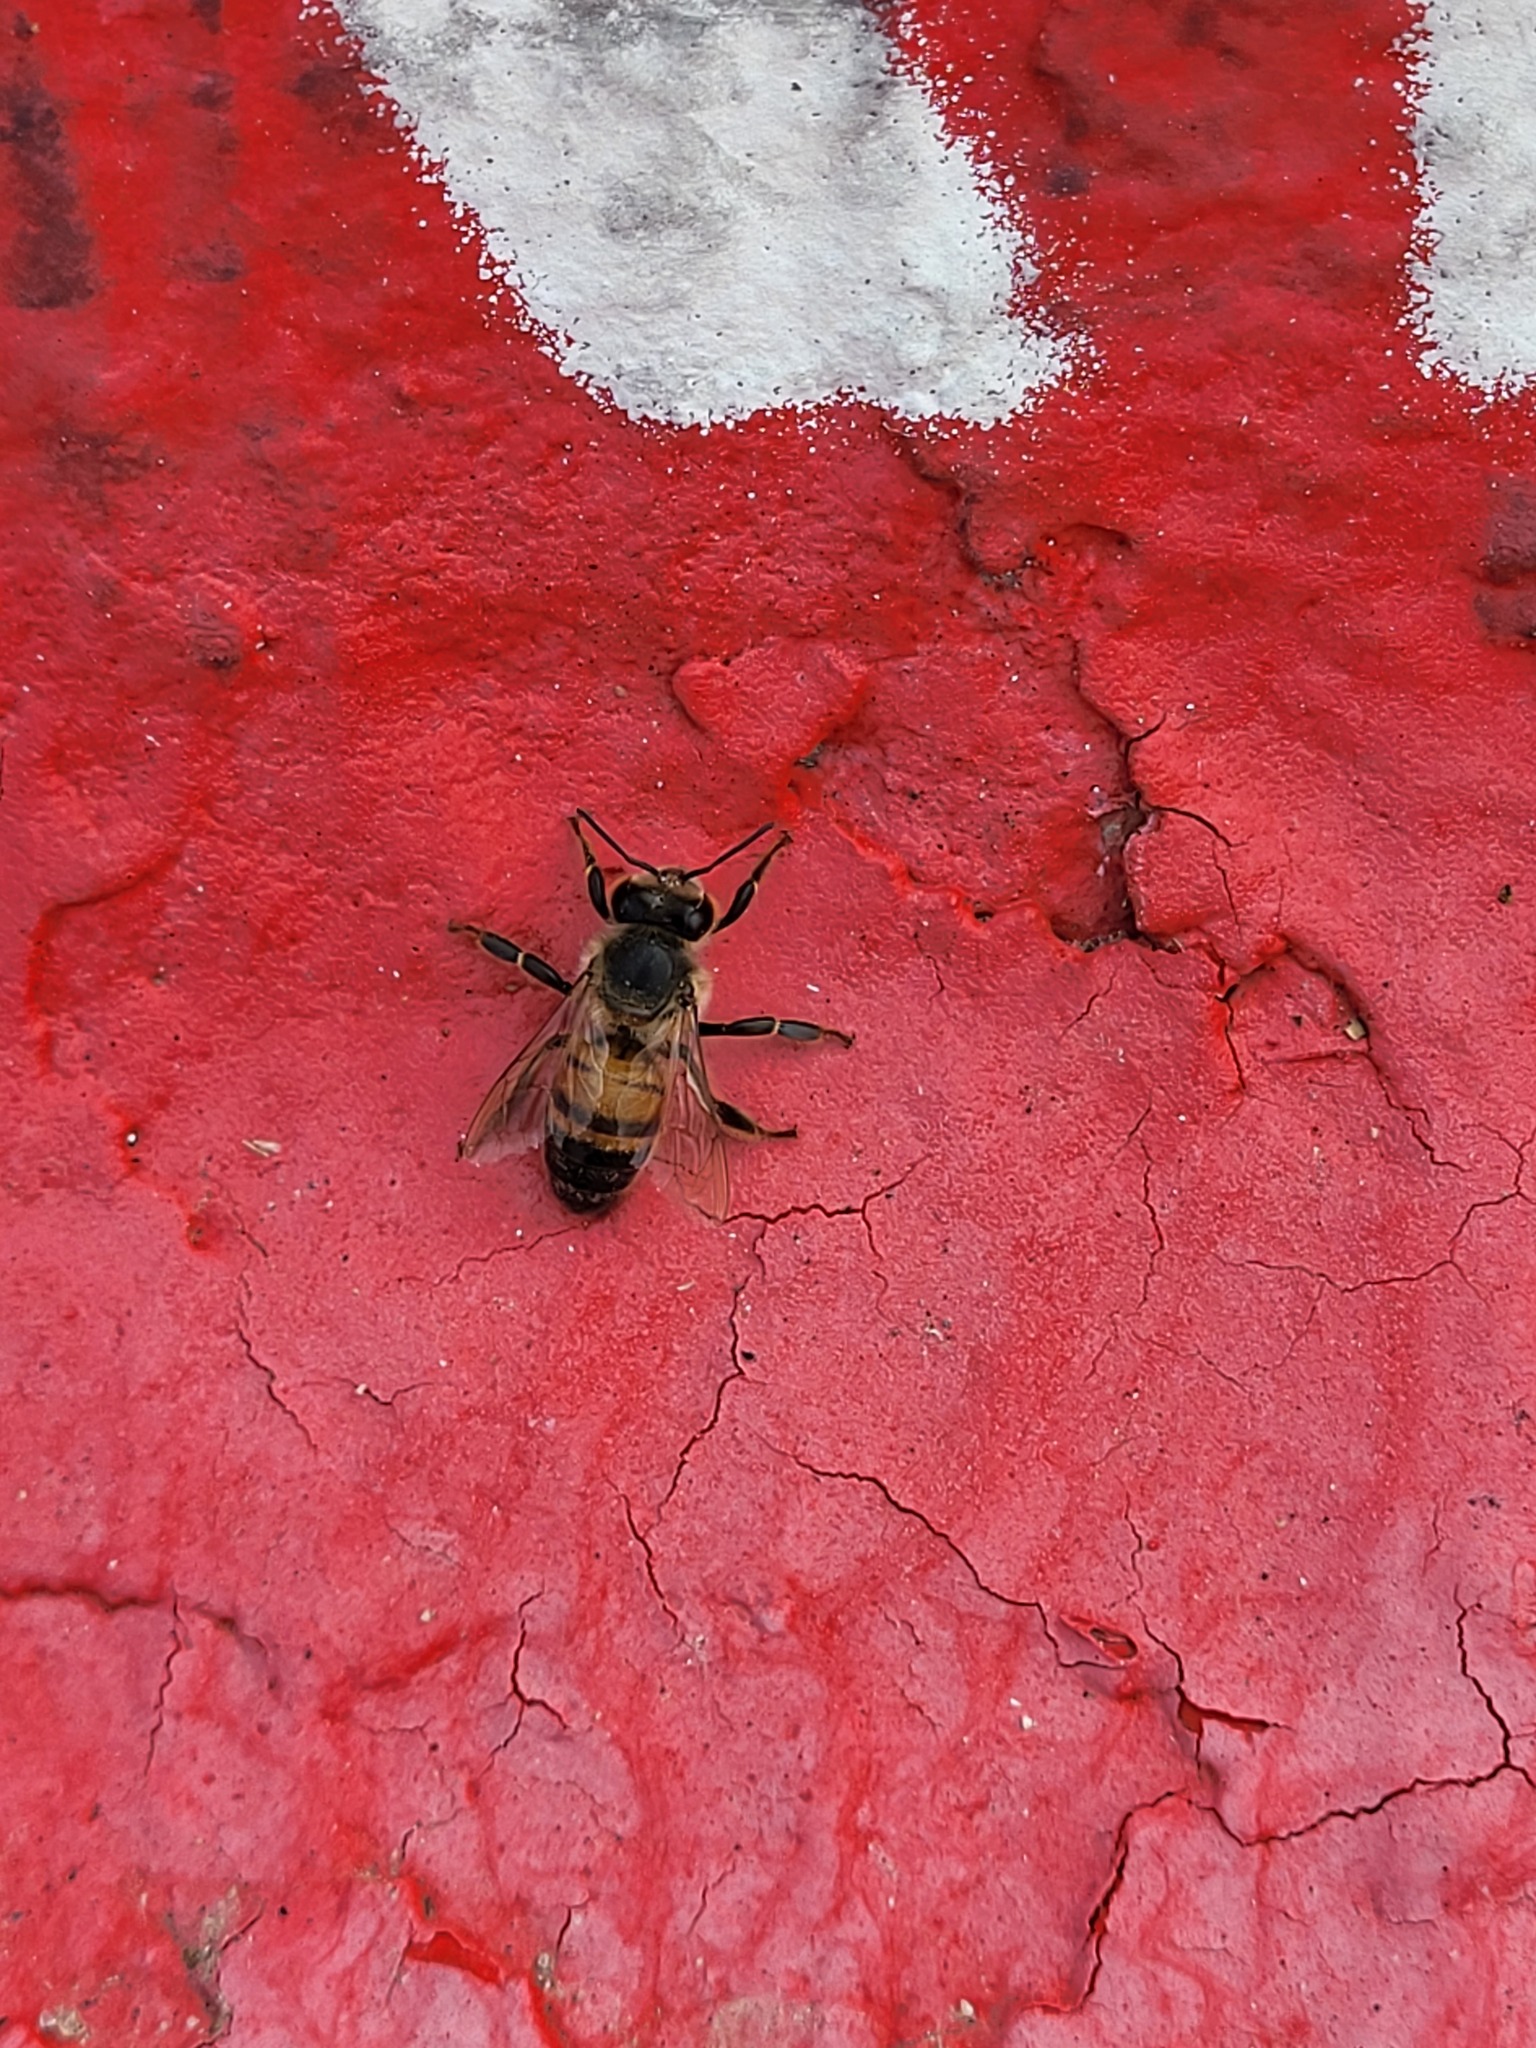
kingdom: Animalia
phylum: Arthropoda
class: Insecta
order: Hymenoptera
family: Apidae
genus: Apis
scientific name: Apis mellifera
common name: Honey bee
